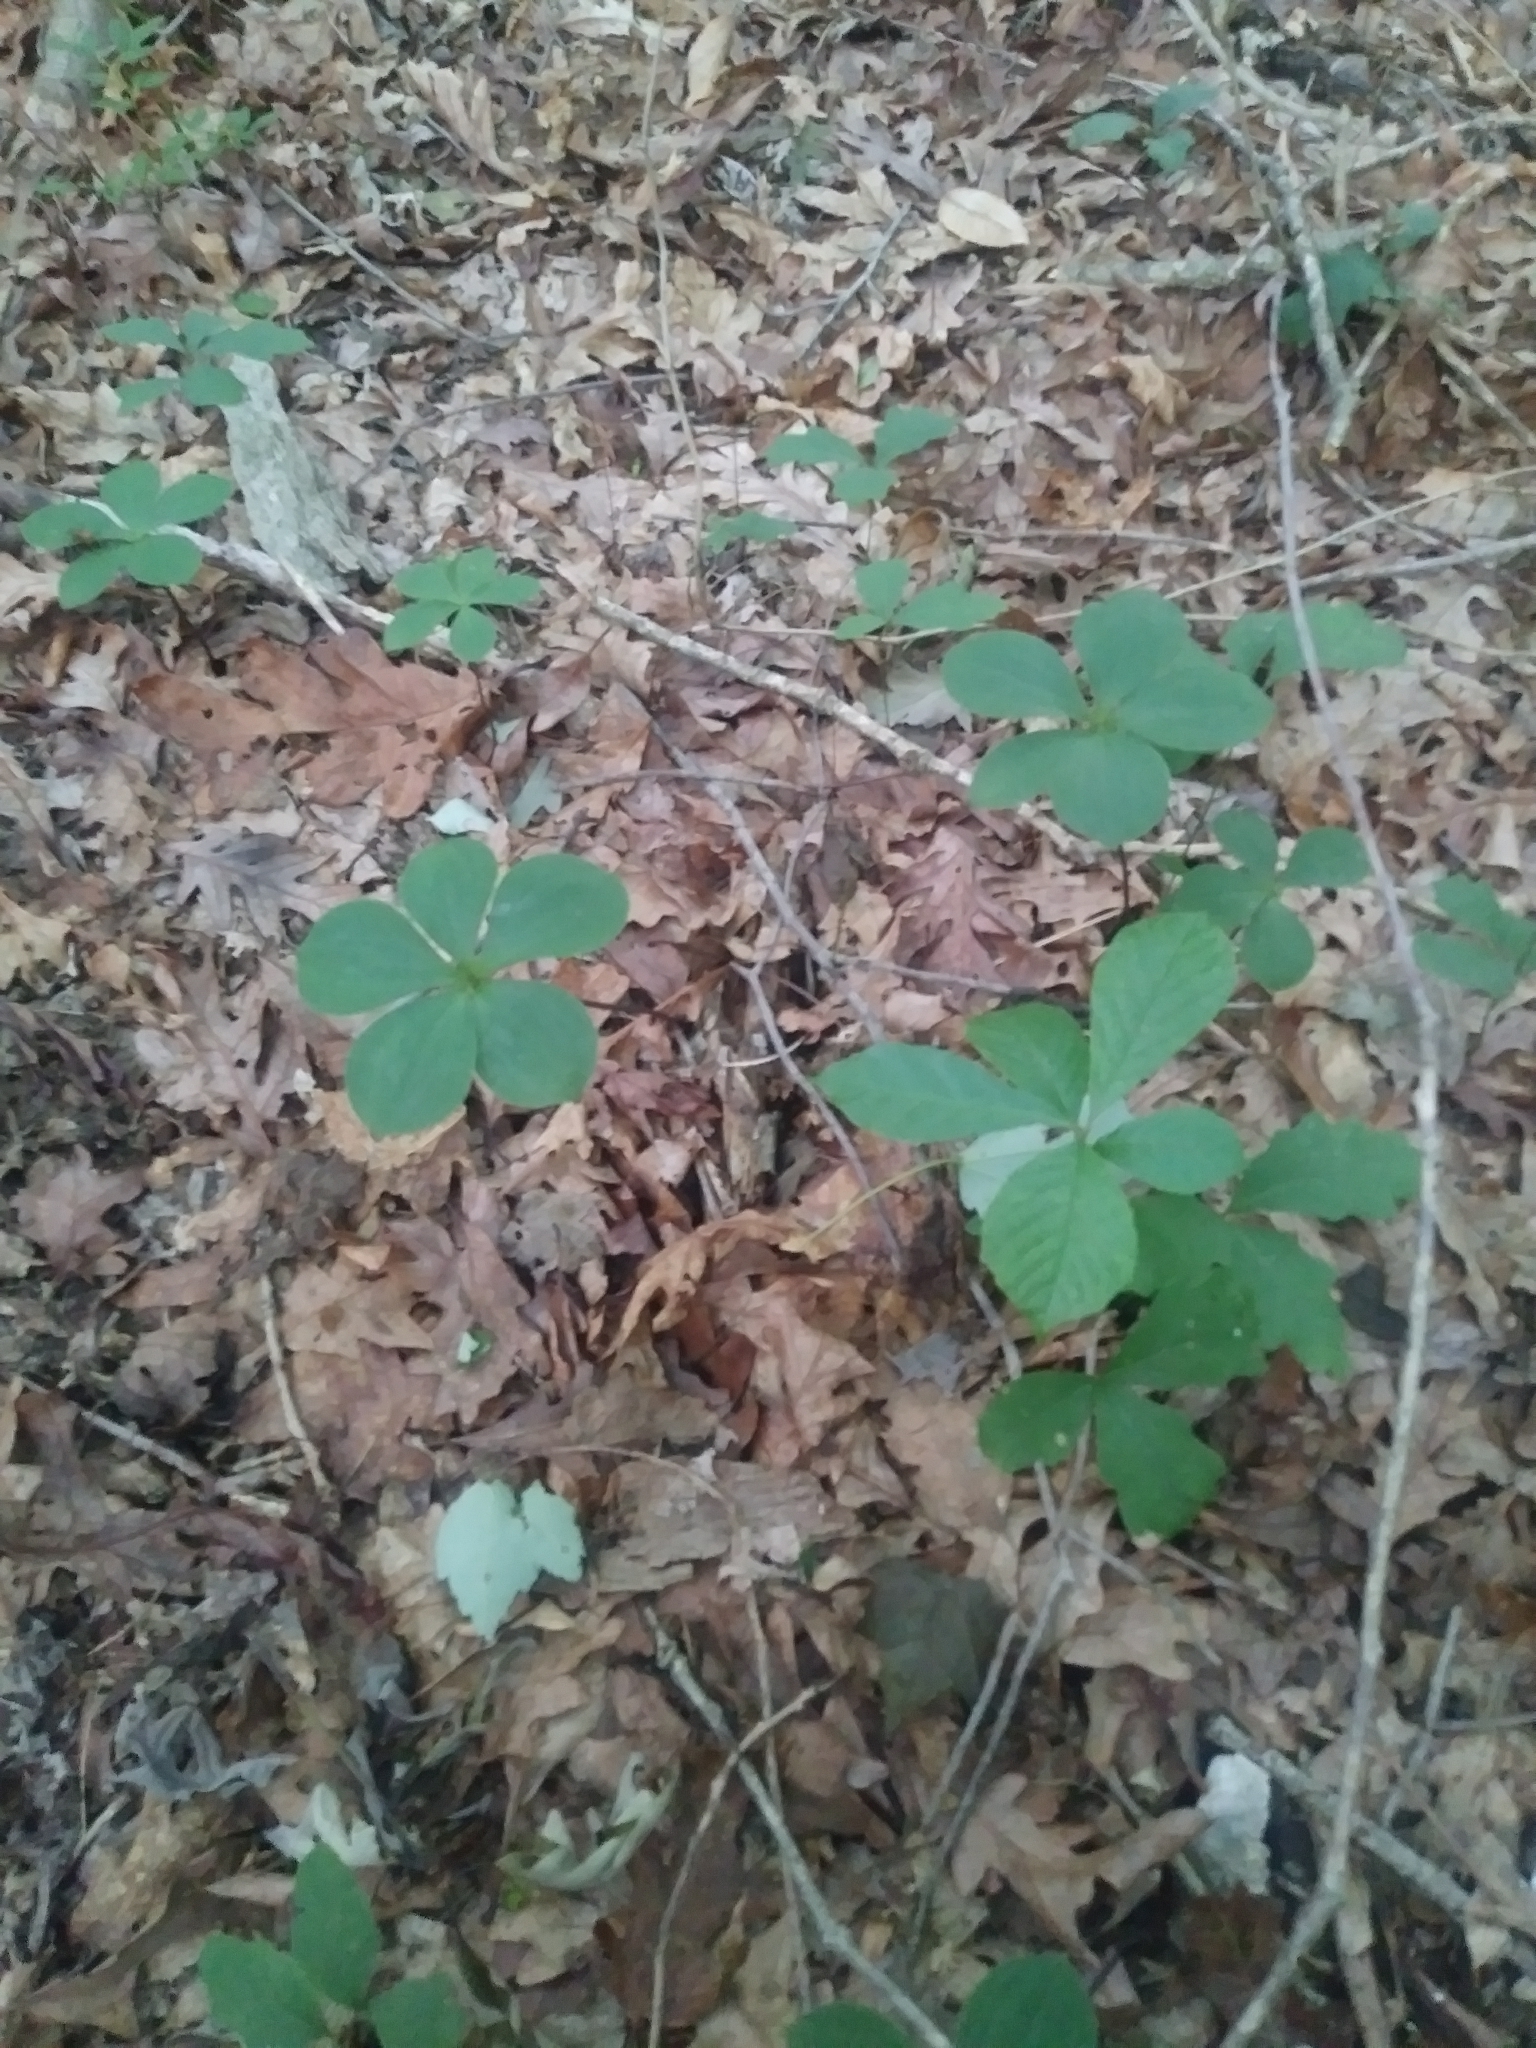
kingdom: Plantae
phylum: Tracheophyta
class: Liliopsida
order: Asparagales
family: Orchidaceae
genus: Isotria
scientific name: Isotria verticillata
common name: Large whorled pogonia
